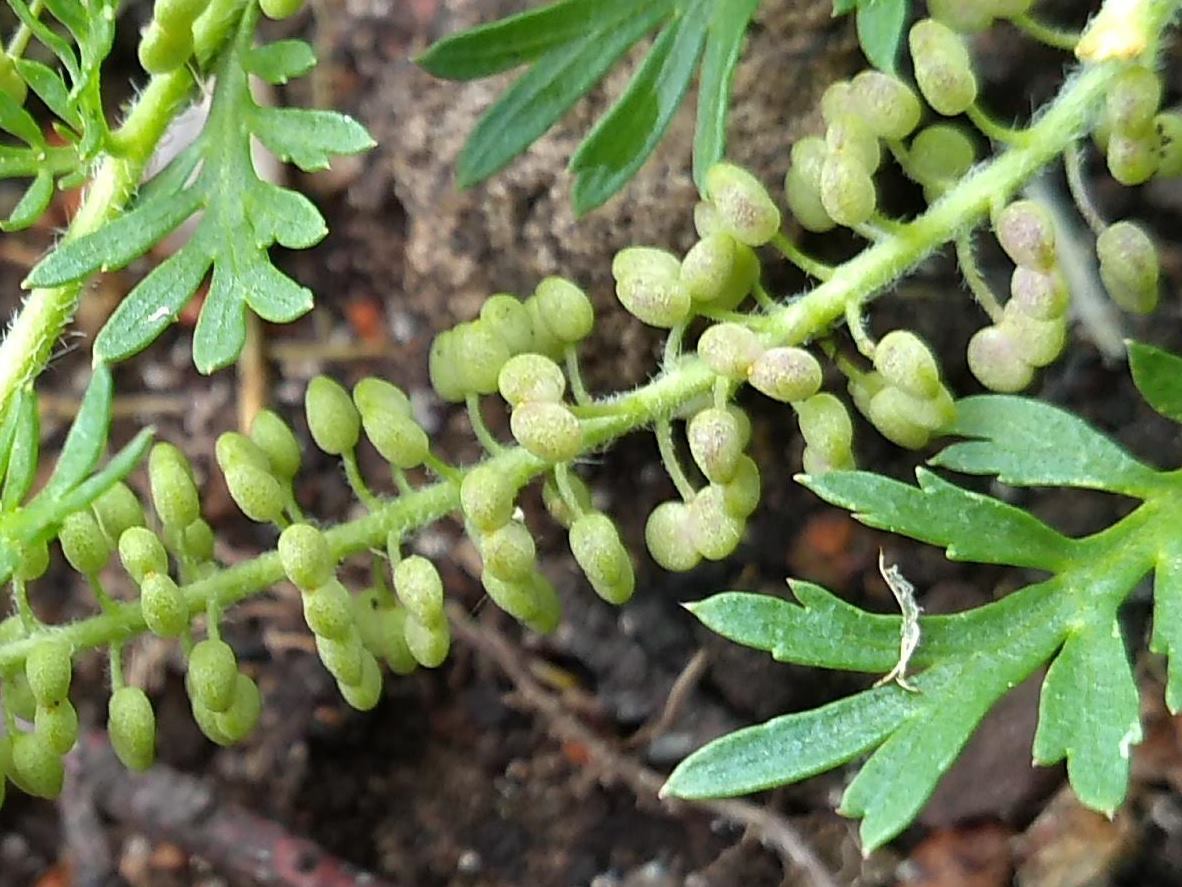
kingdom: Plantae
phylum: Tracheophyta
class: Magnoliopsida
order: Brassicales
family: Brassicaceae
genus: Lepidium
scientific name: Lepidium didymum
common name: Lesser swinecress
